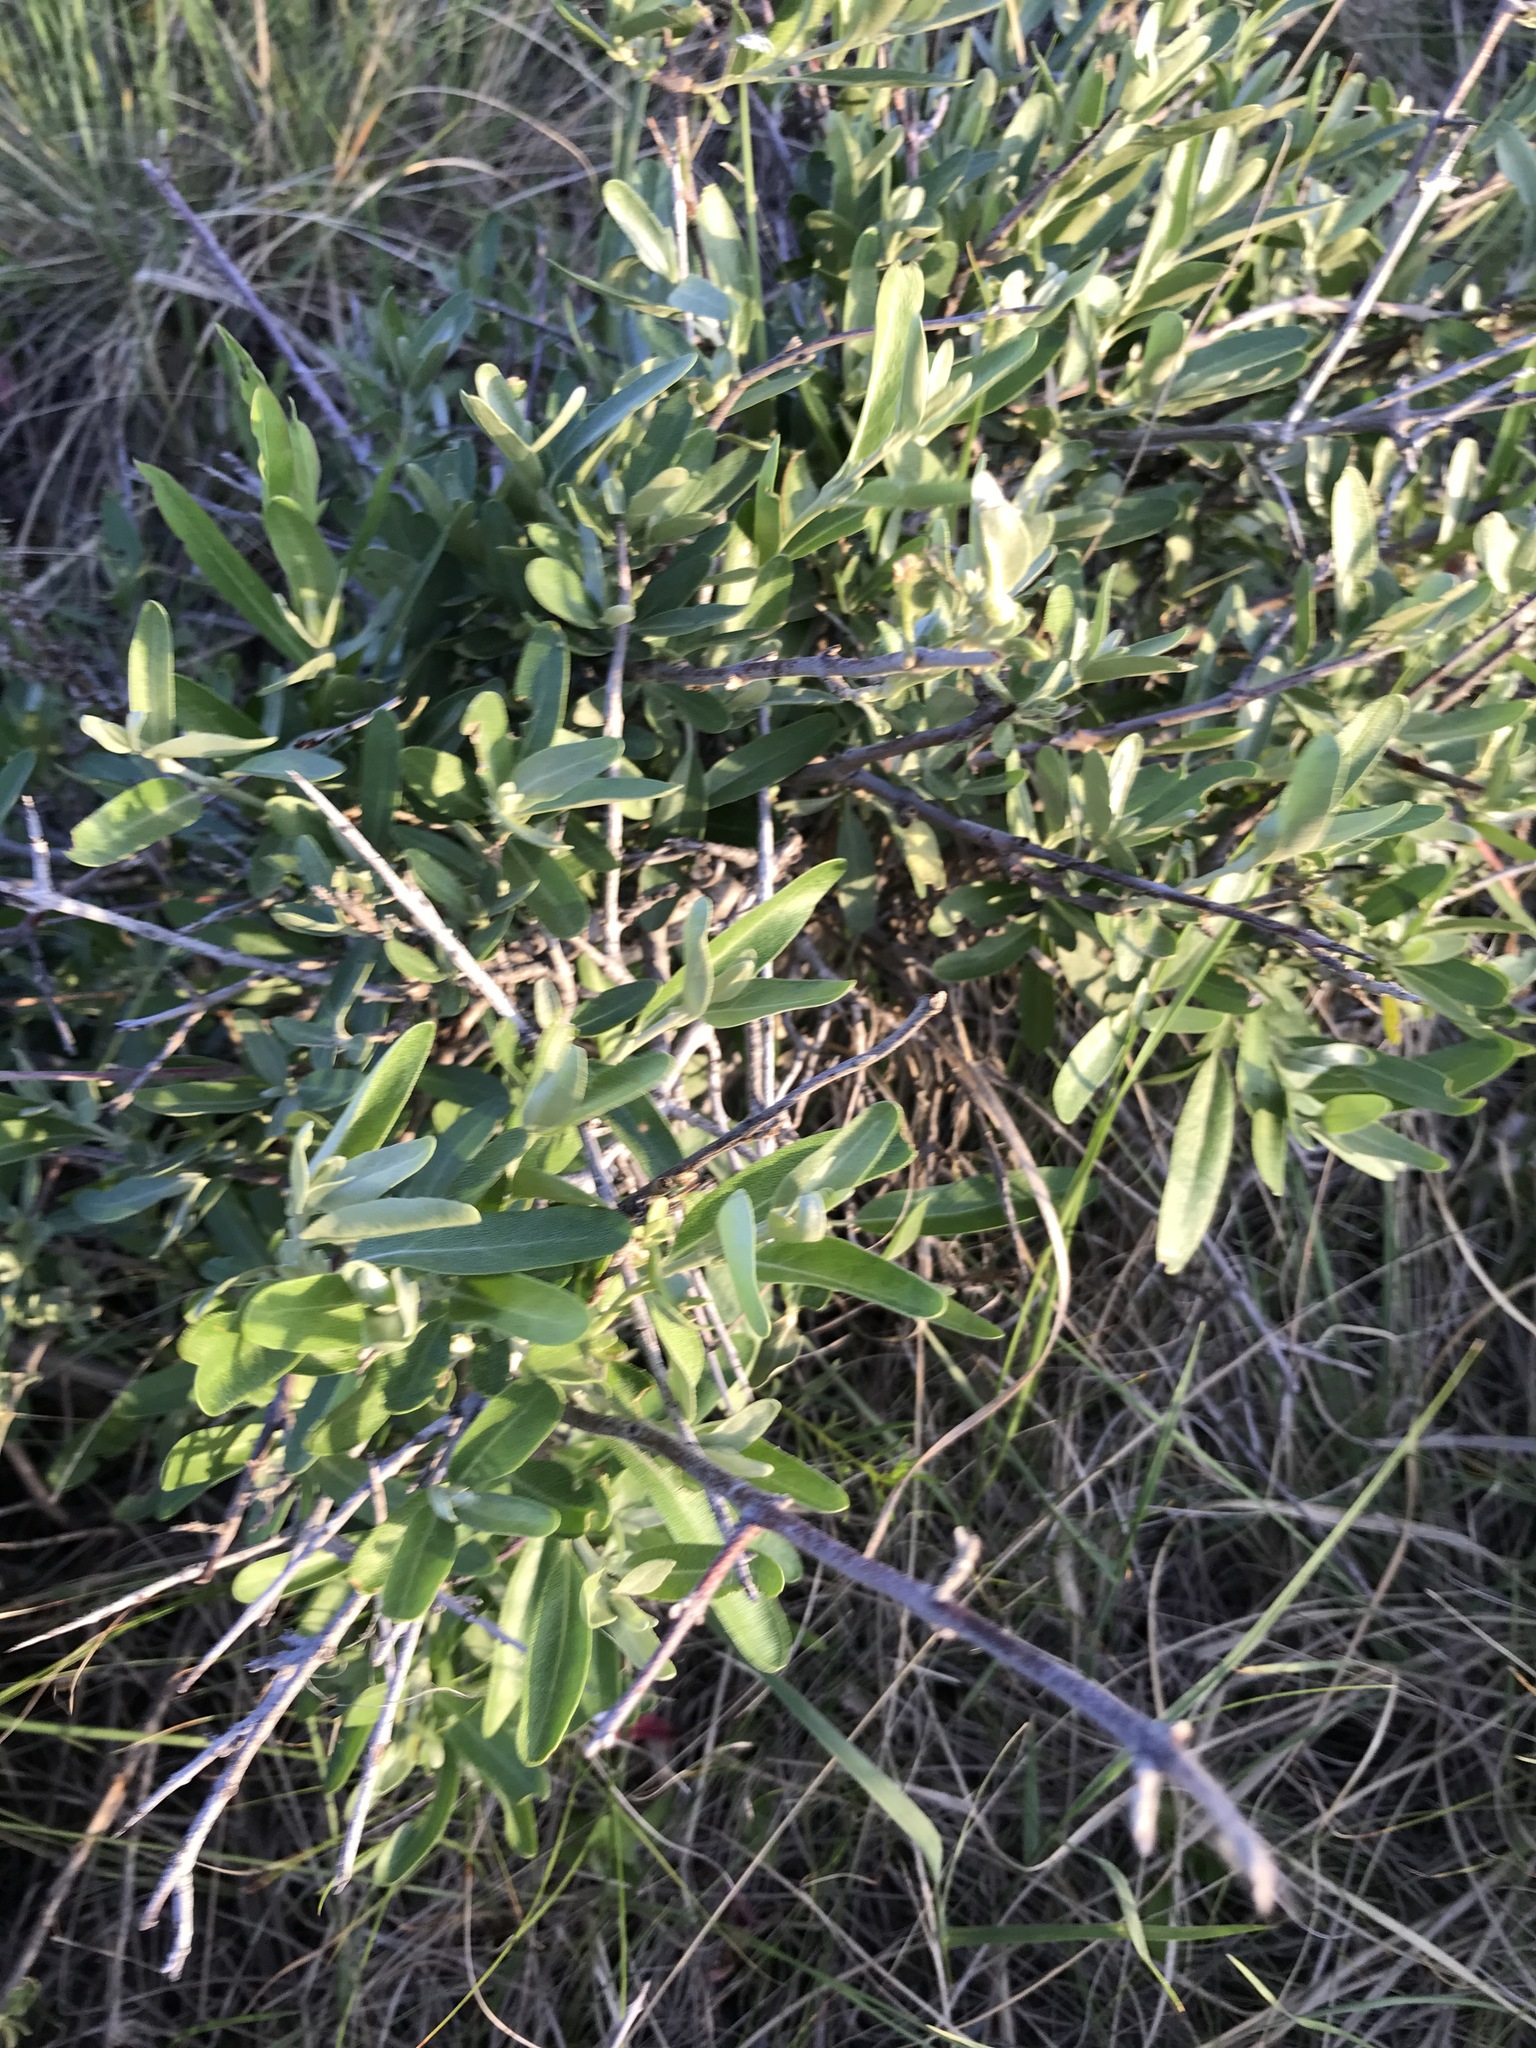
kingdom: Plantae
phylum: Tracheophyta
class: Magnoliopsida
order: Rosales
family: Elaeagnaceae
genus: Shepherdia
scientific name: Shepherdia argentea
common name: Silver buffaloberry
